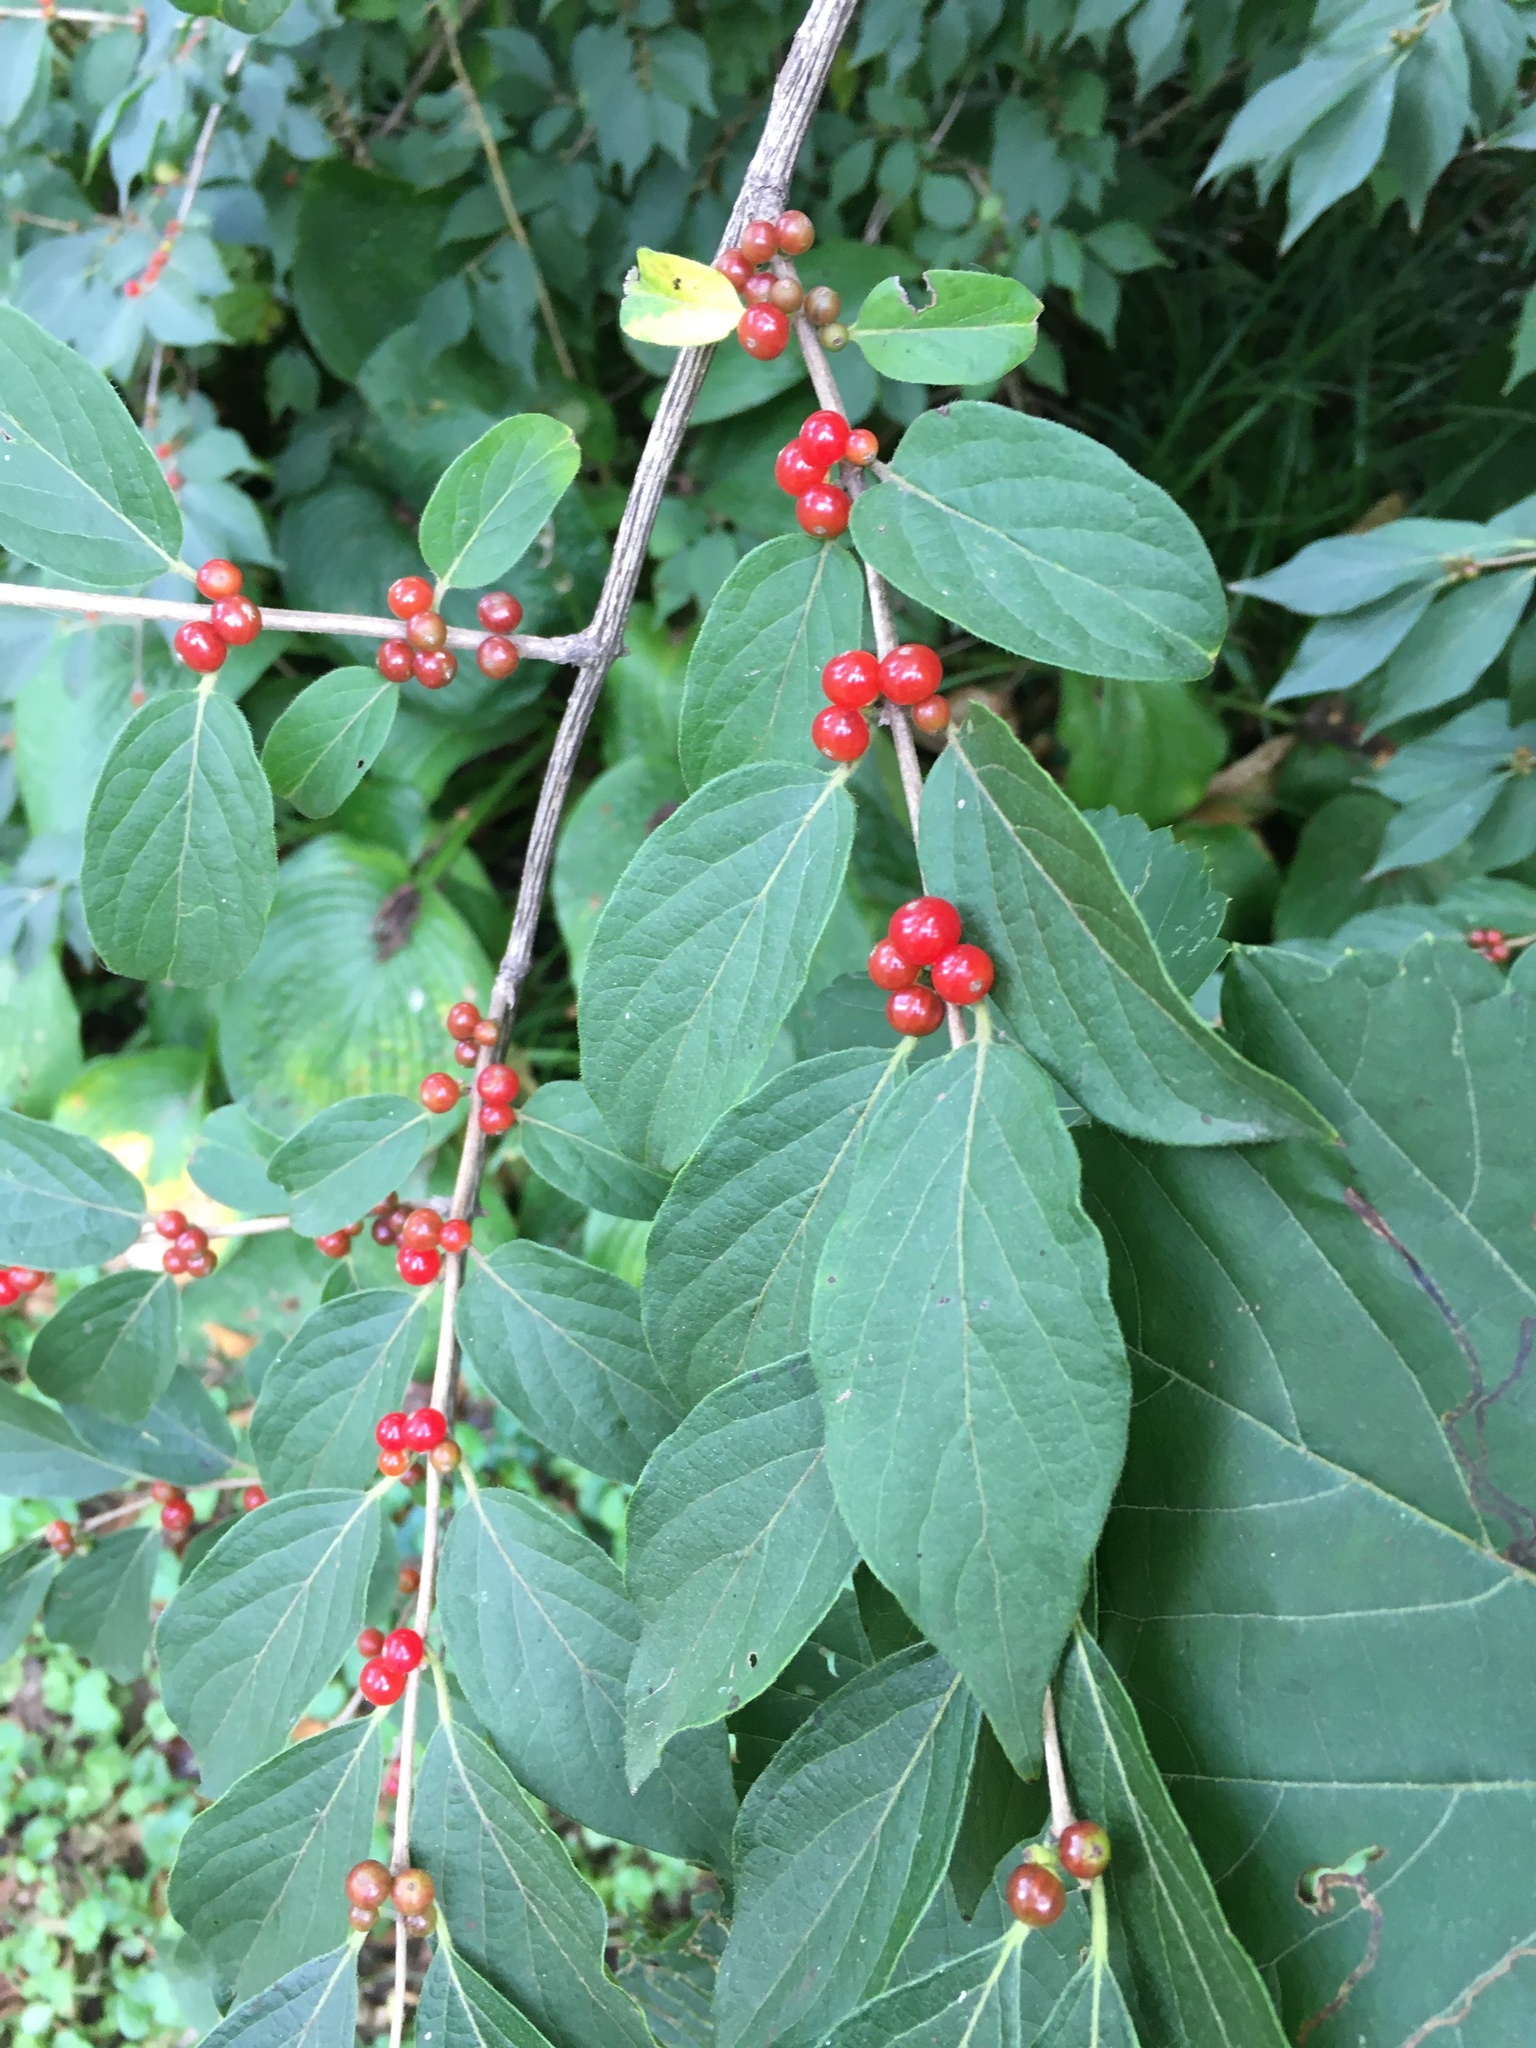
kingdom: Plantae
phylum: Tracheophyta
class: Magnoliopsida
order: Dipsacales
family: Caprifoliaceae
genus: Lonicera
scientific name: Lonicera maackii
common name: Amur honeysuckle
